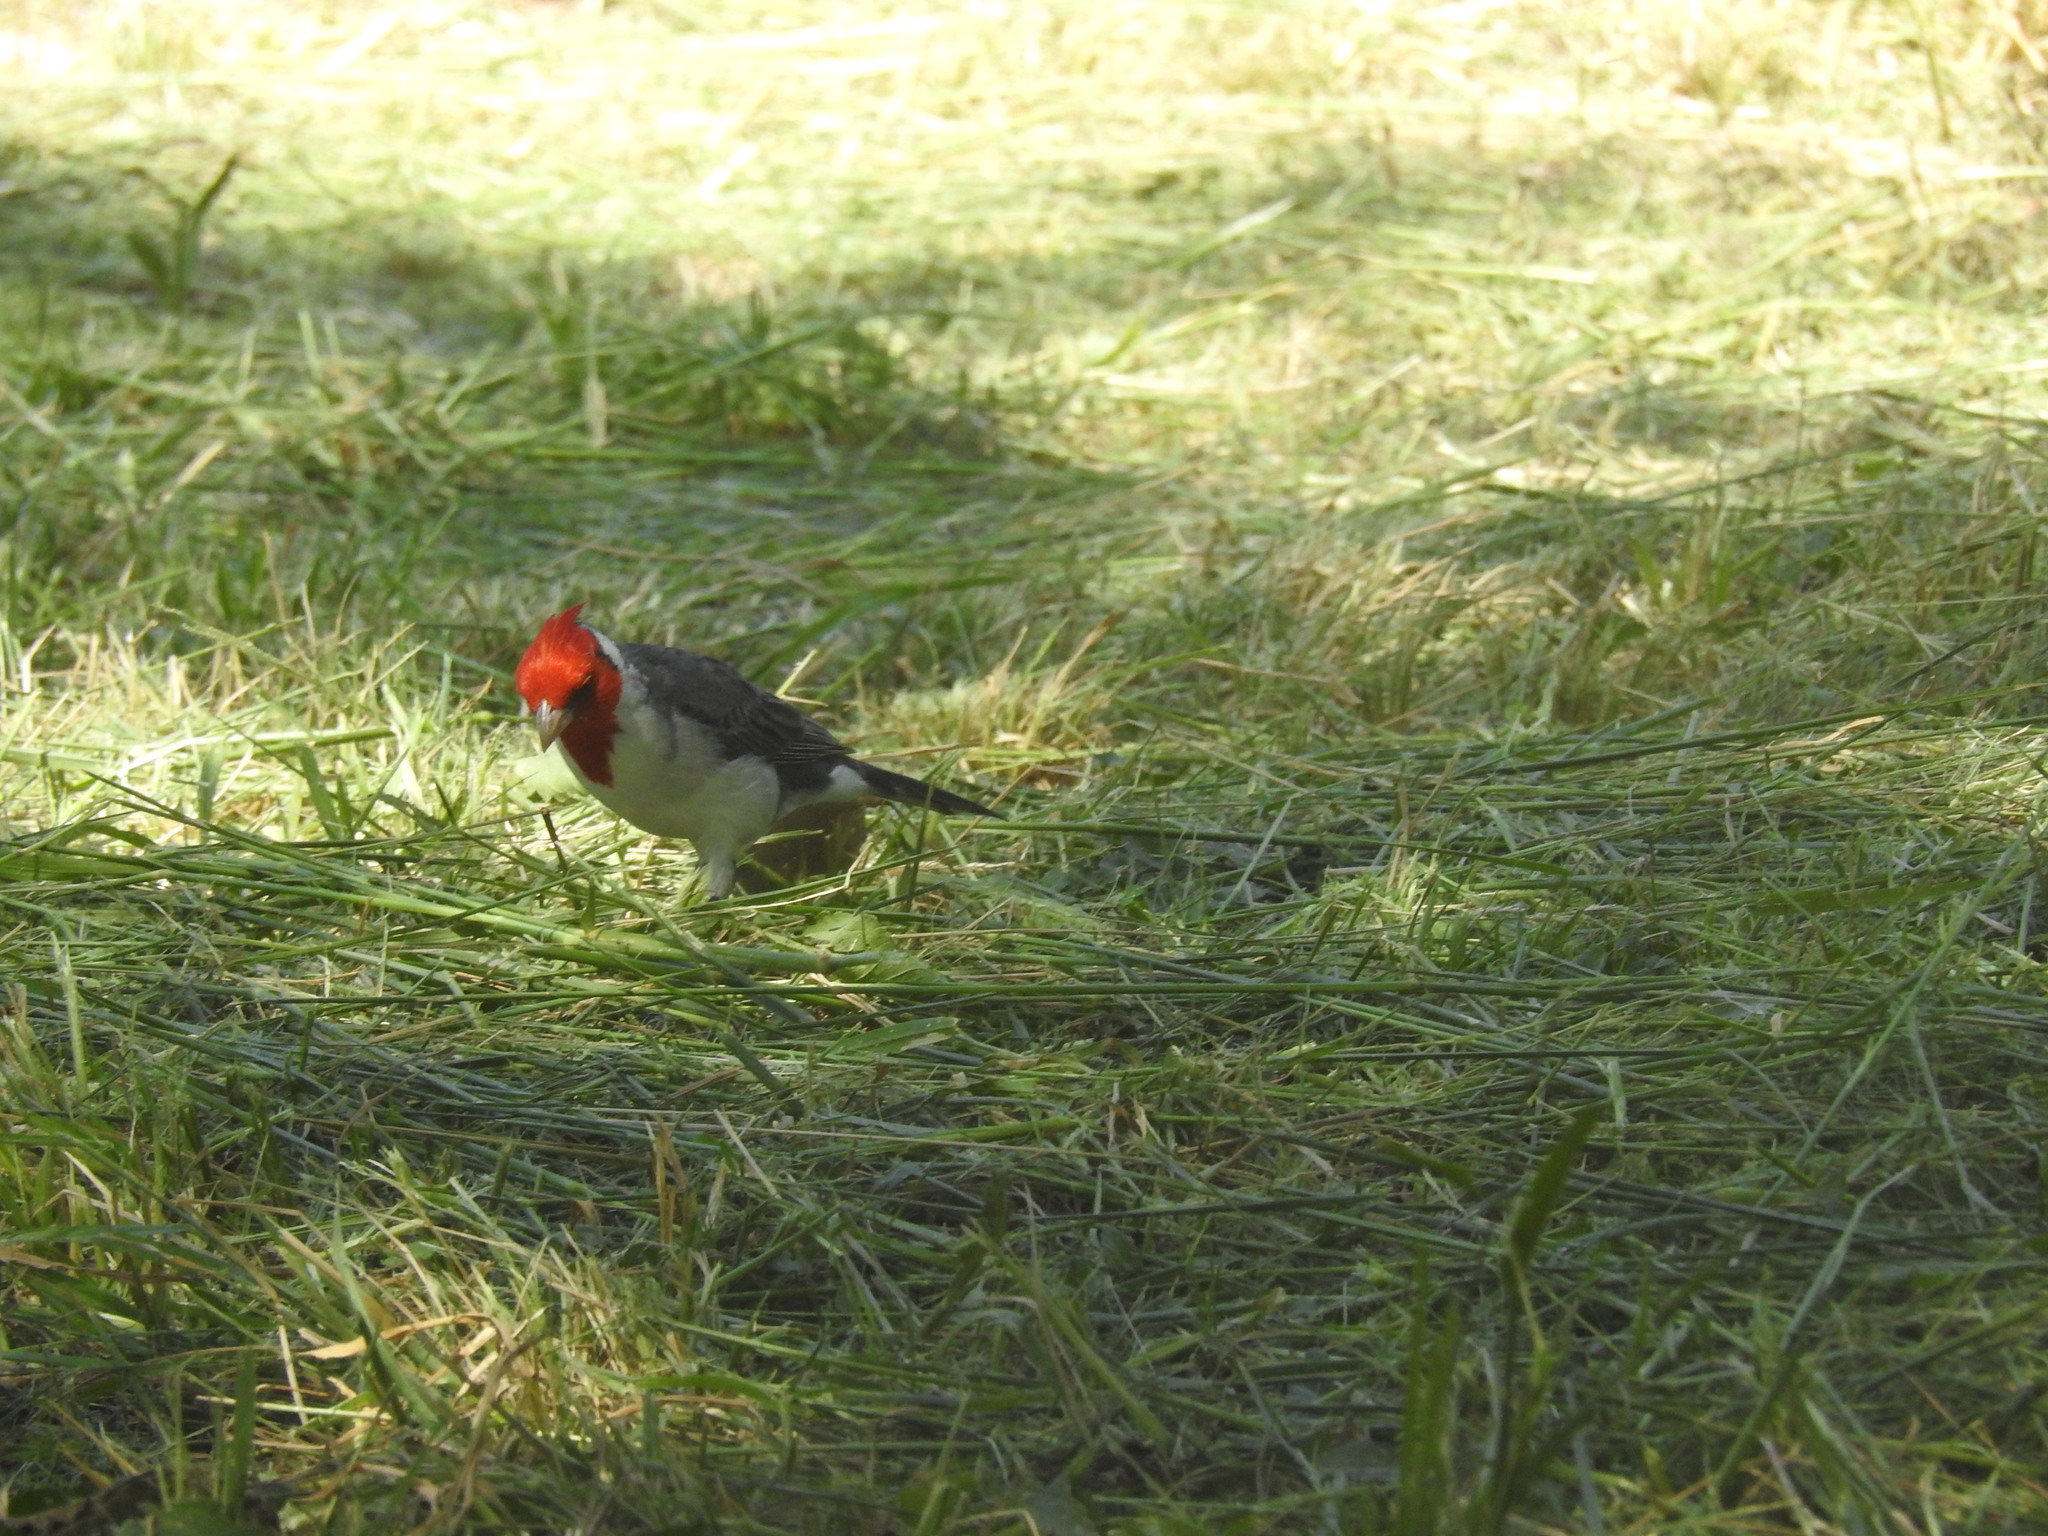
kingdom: Animalia
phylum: Chordata
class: Aves
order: Passeriformes
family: Thraupidae
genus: Paroaria
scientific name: Paroaria coronata
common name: Red-crested cardinal
